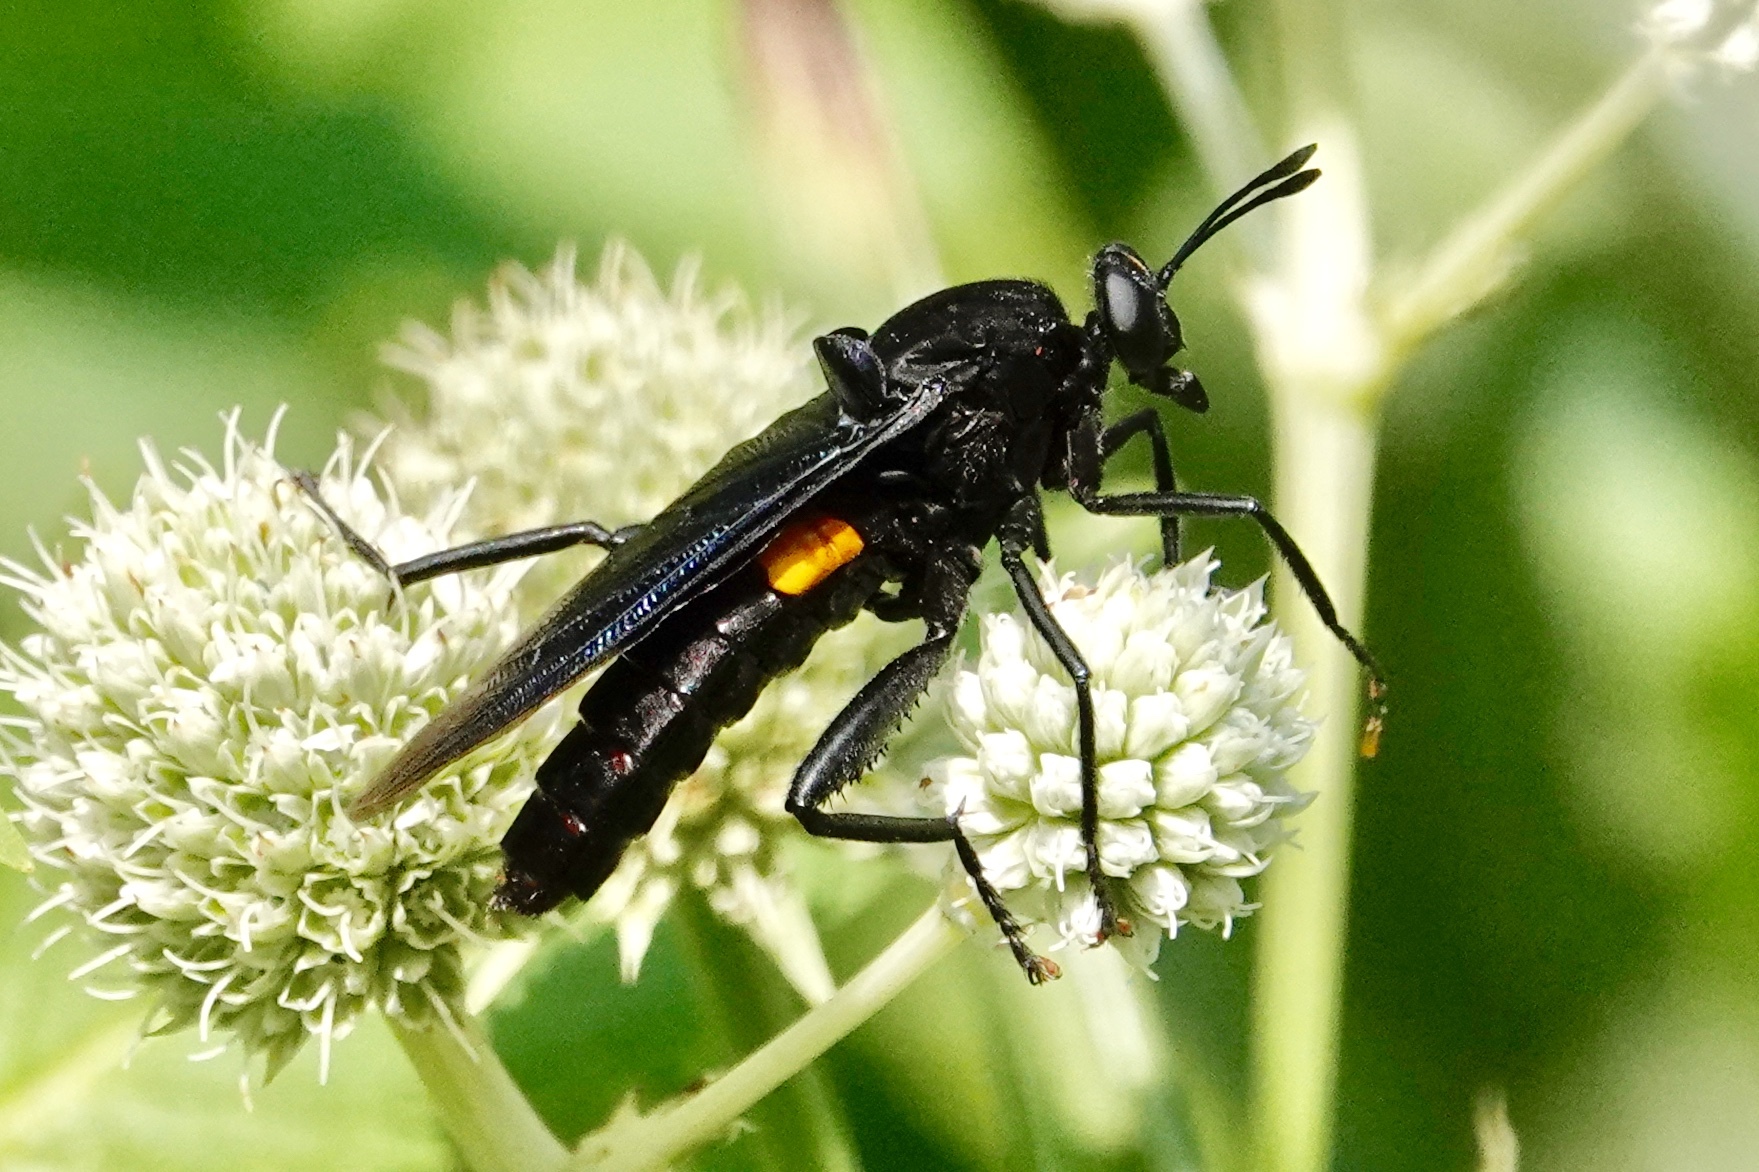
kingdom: Animalia
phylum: Arthropoda
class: Insecta
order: Diptera
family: Mydidae
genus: Mydas
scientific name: Mydas clavatus
